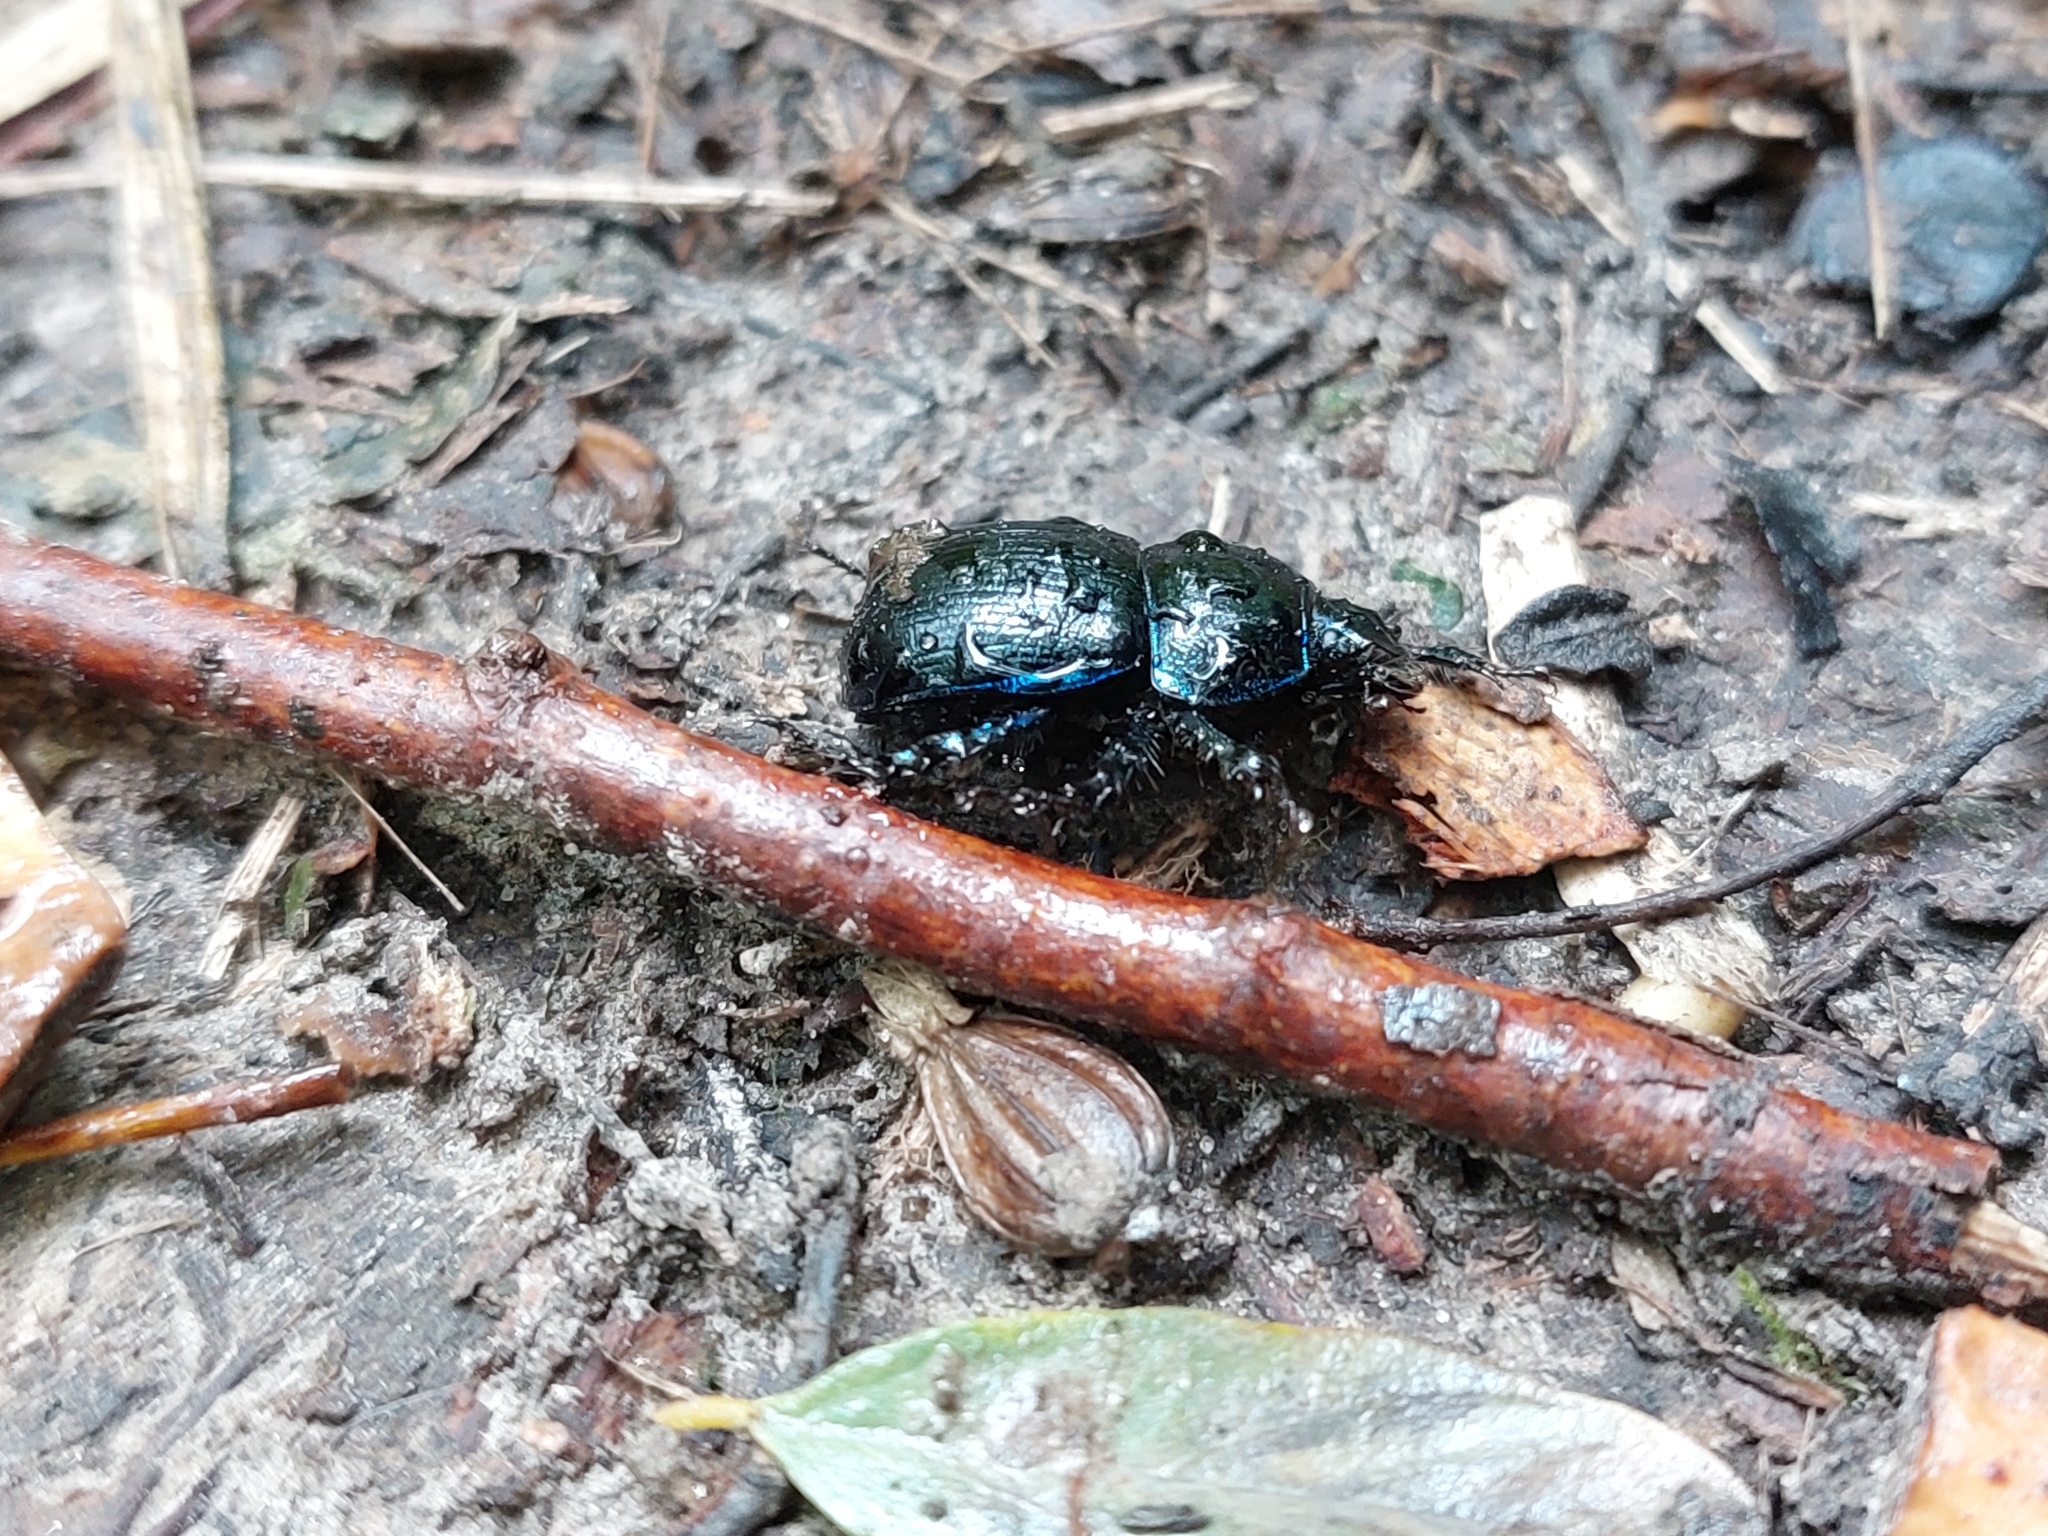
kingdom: Animalia
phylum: Arthropoda
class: Insecta
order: Coleoptera
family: Geotrupidae
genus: Anoplotrupes
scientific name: Anoplotrupes stercorosus
